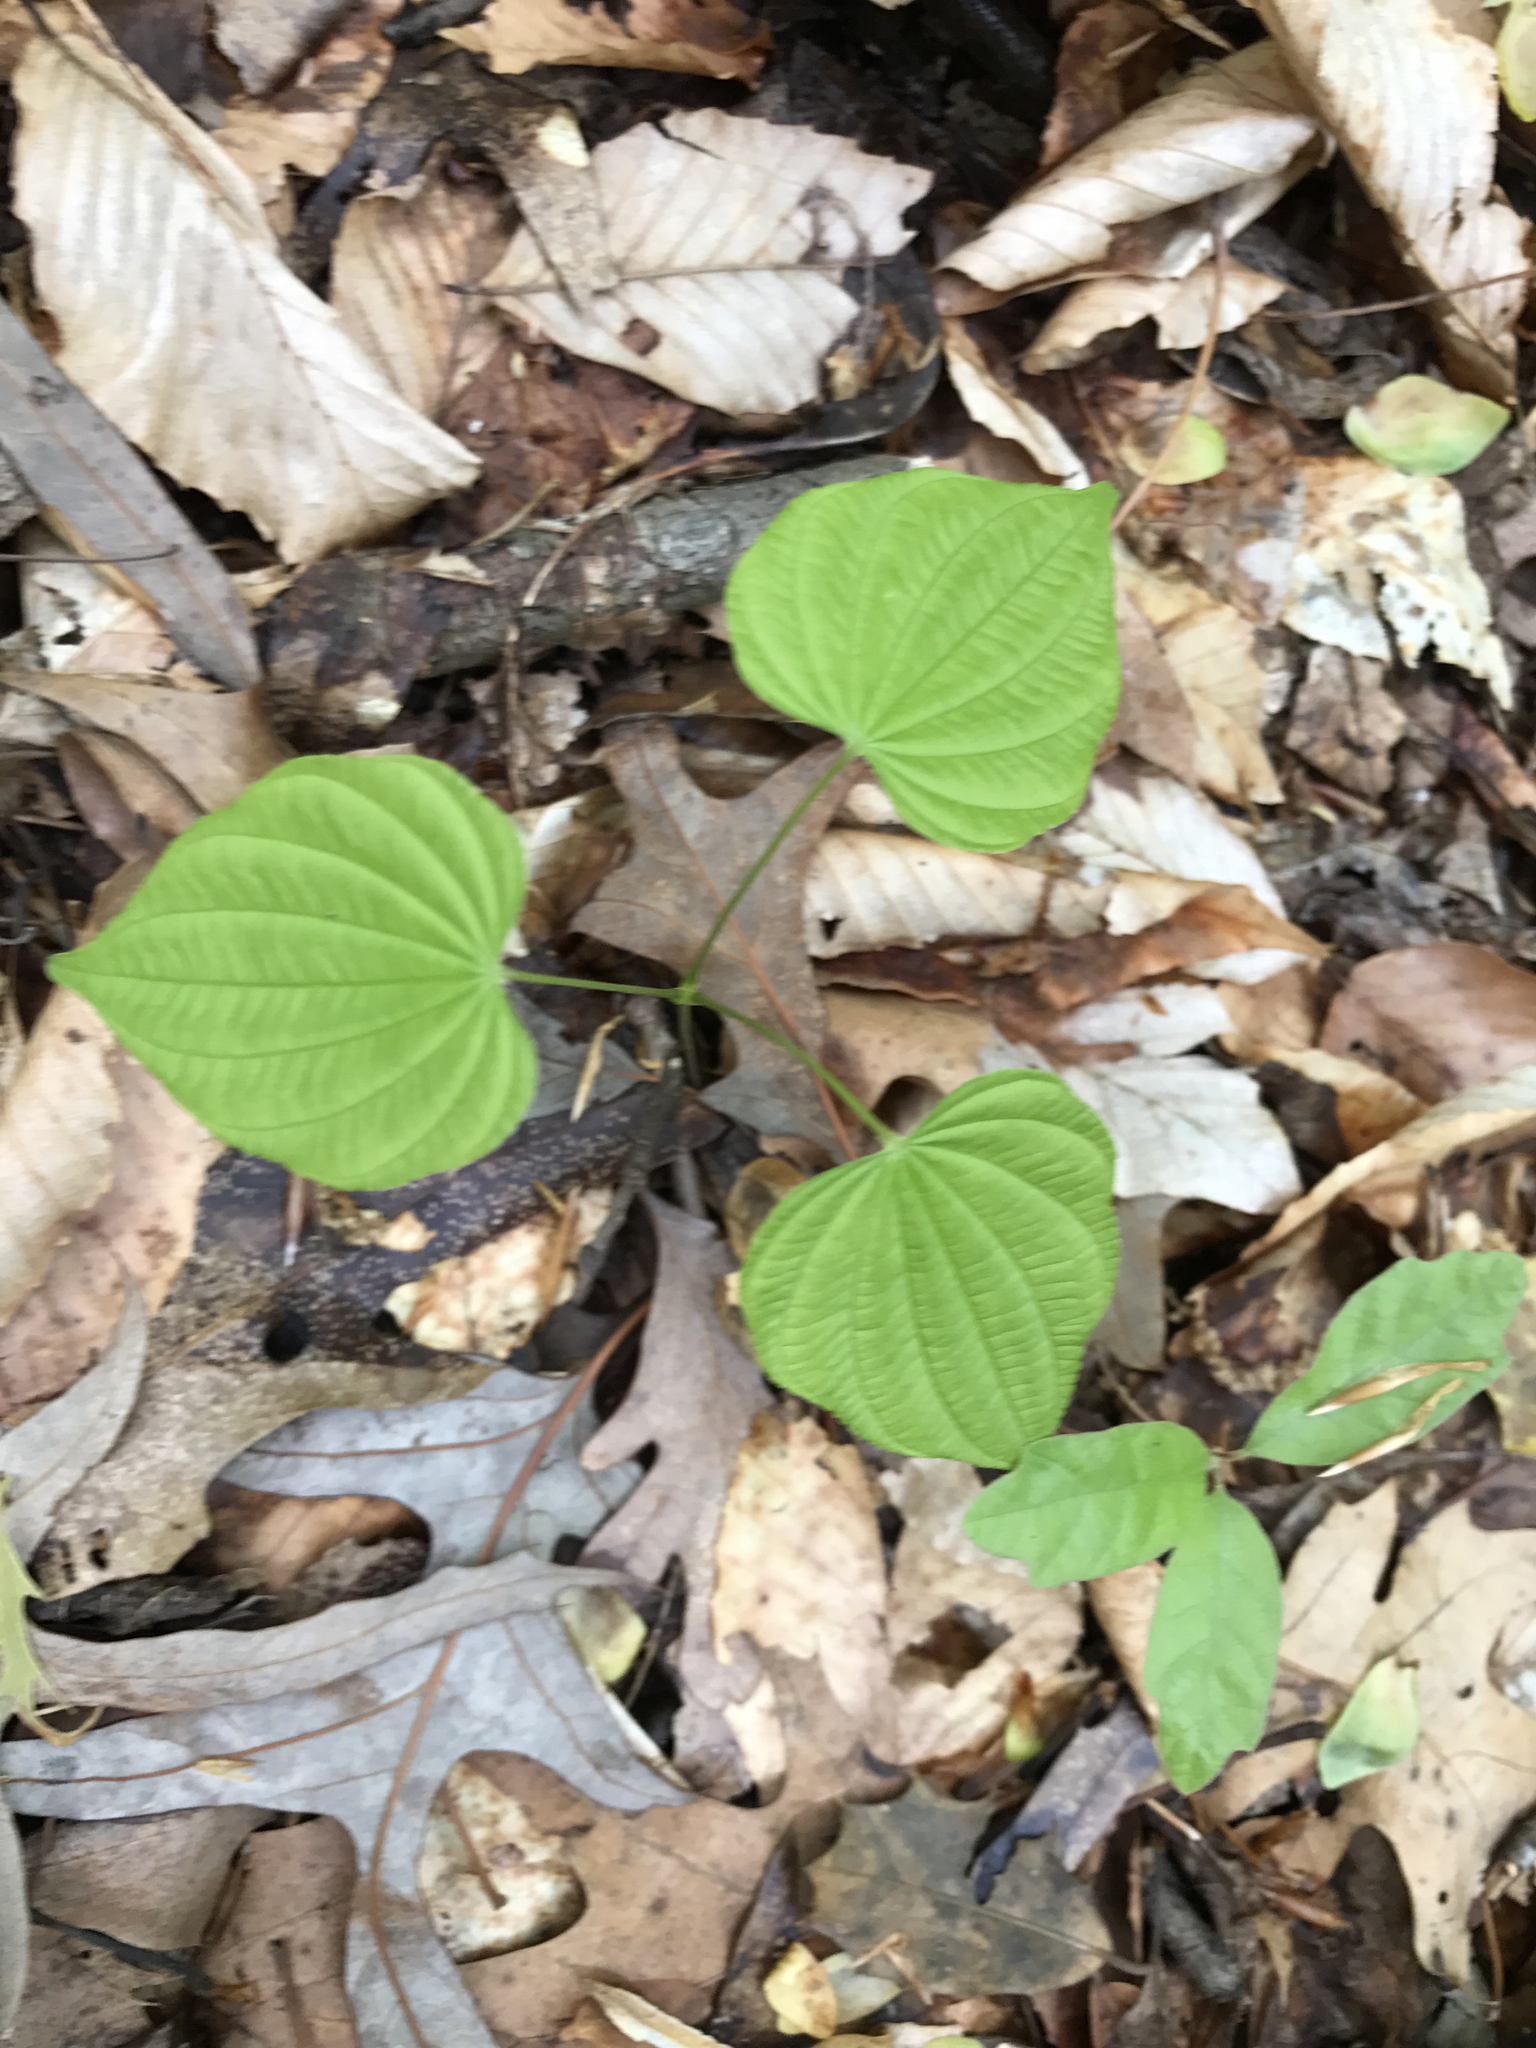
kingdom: Plantae
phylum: Tracheophyta
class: Liliopsida
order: Dioscoreales
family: Dioscoreaceae
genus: Dioscorea
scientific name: Dioscorea villosa
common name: Wild yam
